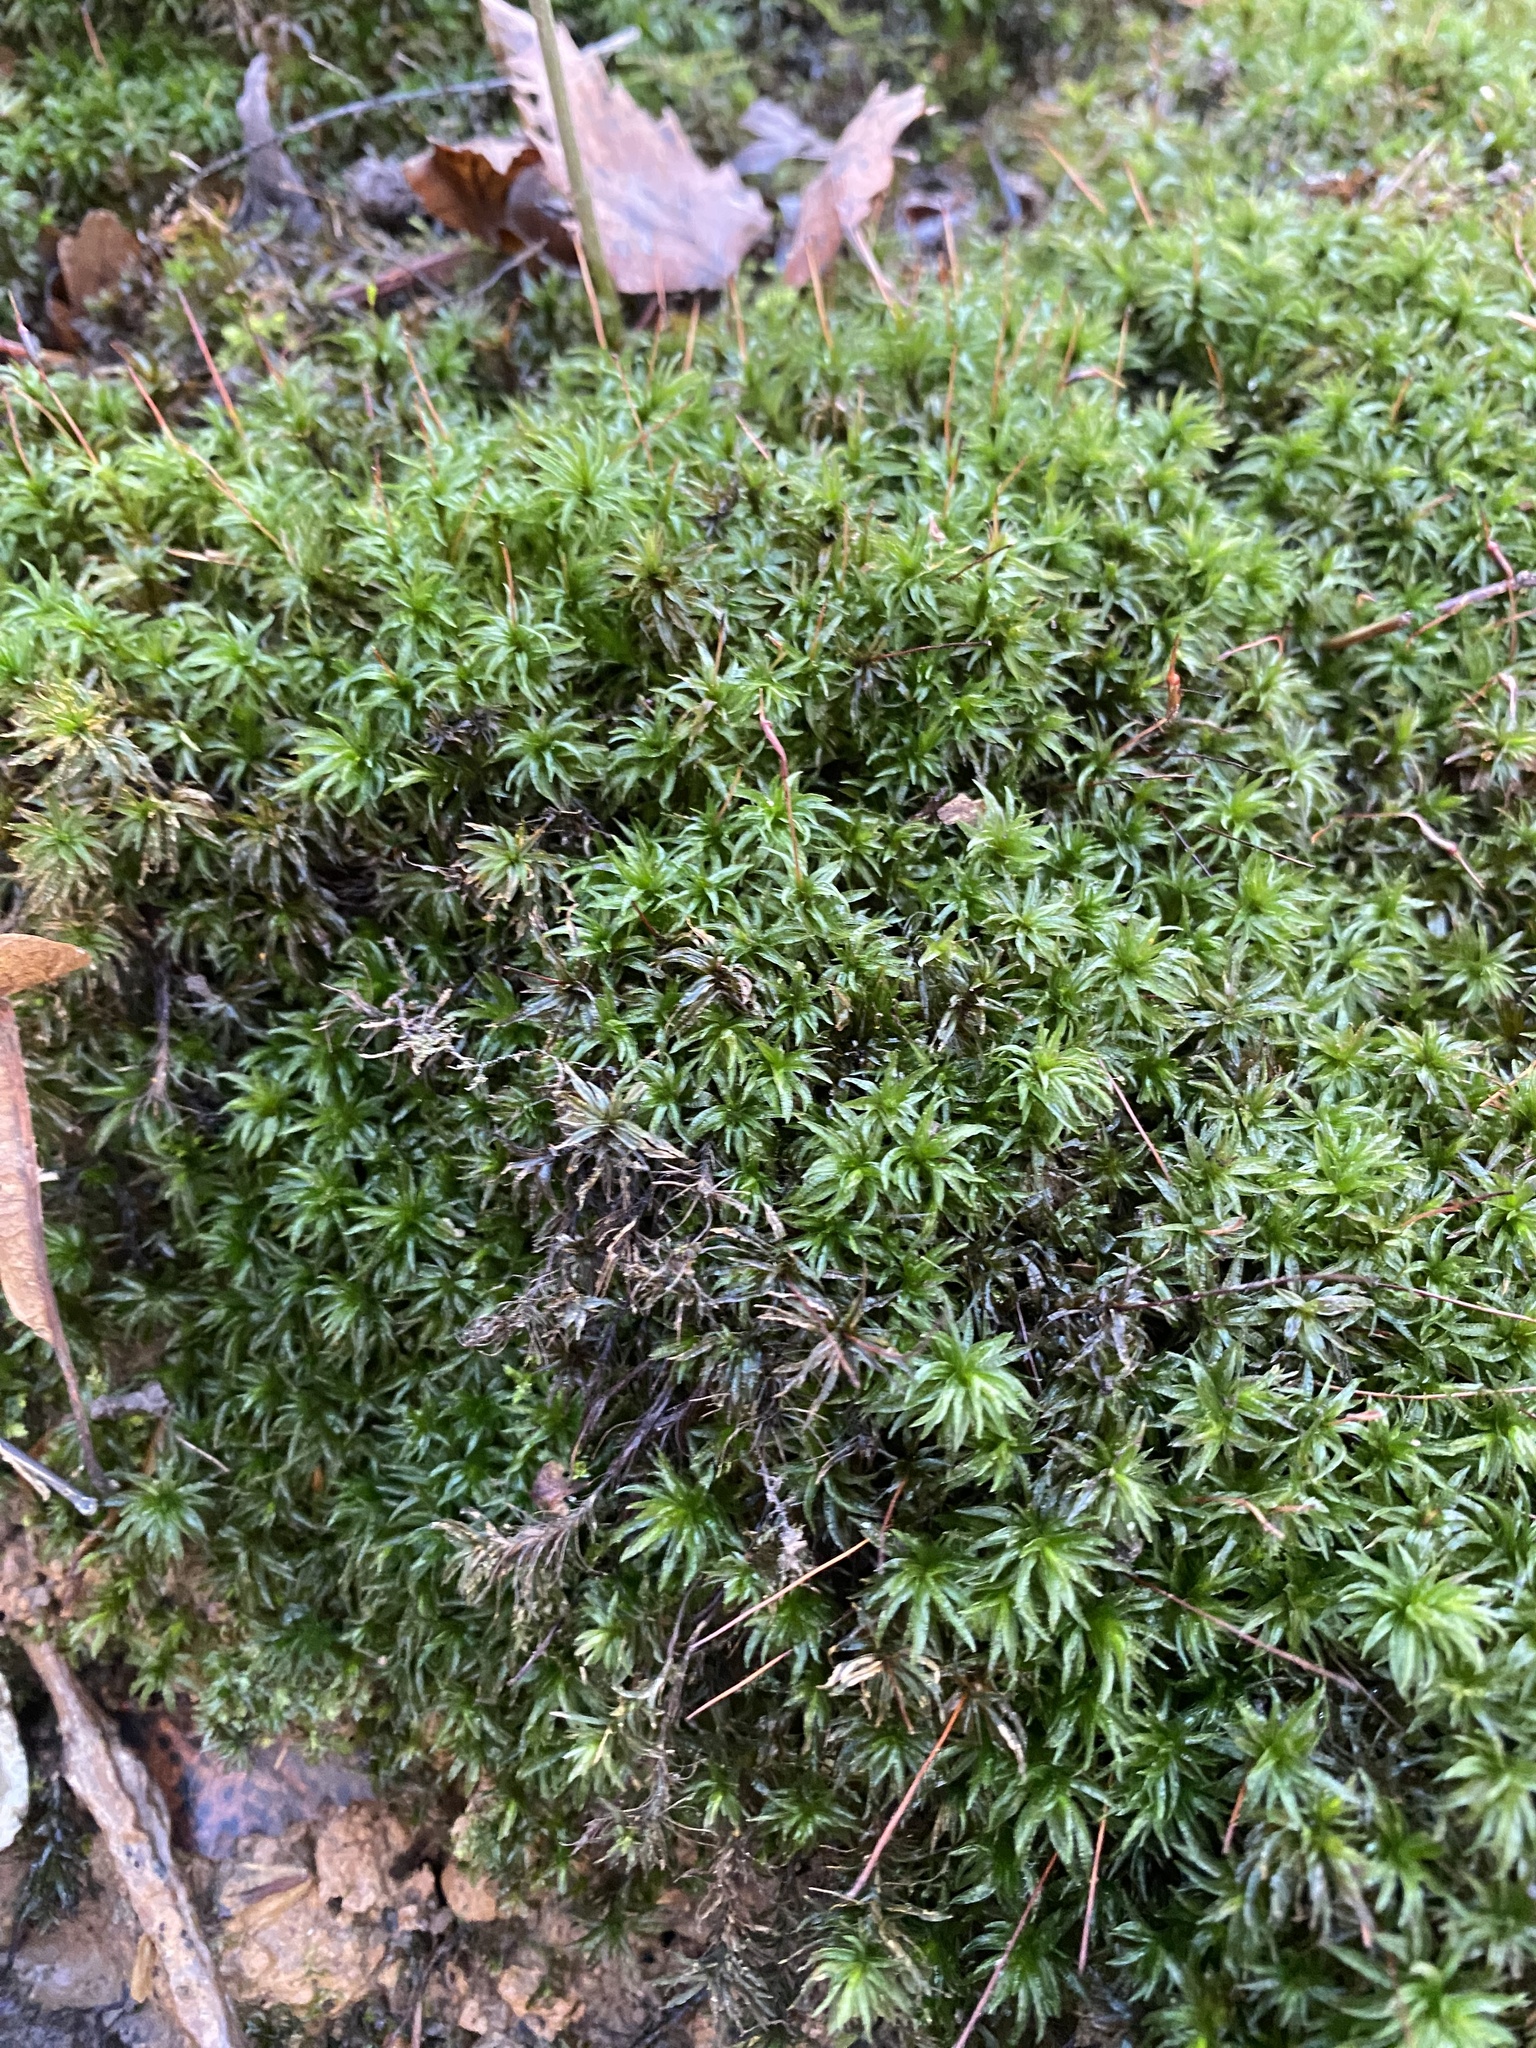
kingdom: Plantae
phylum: Bryophyta
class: Polytrichopsida
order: Polytrichales
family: Polytrichaceae
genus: Atrichum
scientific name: Atrichum undulatum
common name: Common smoothcap
